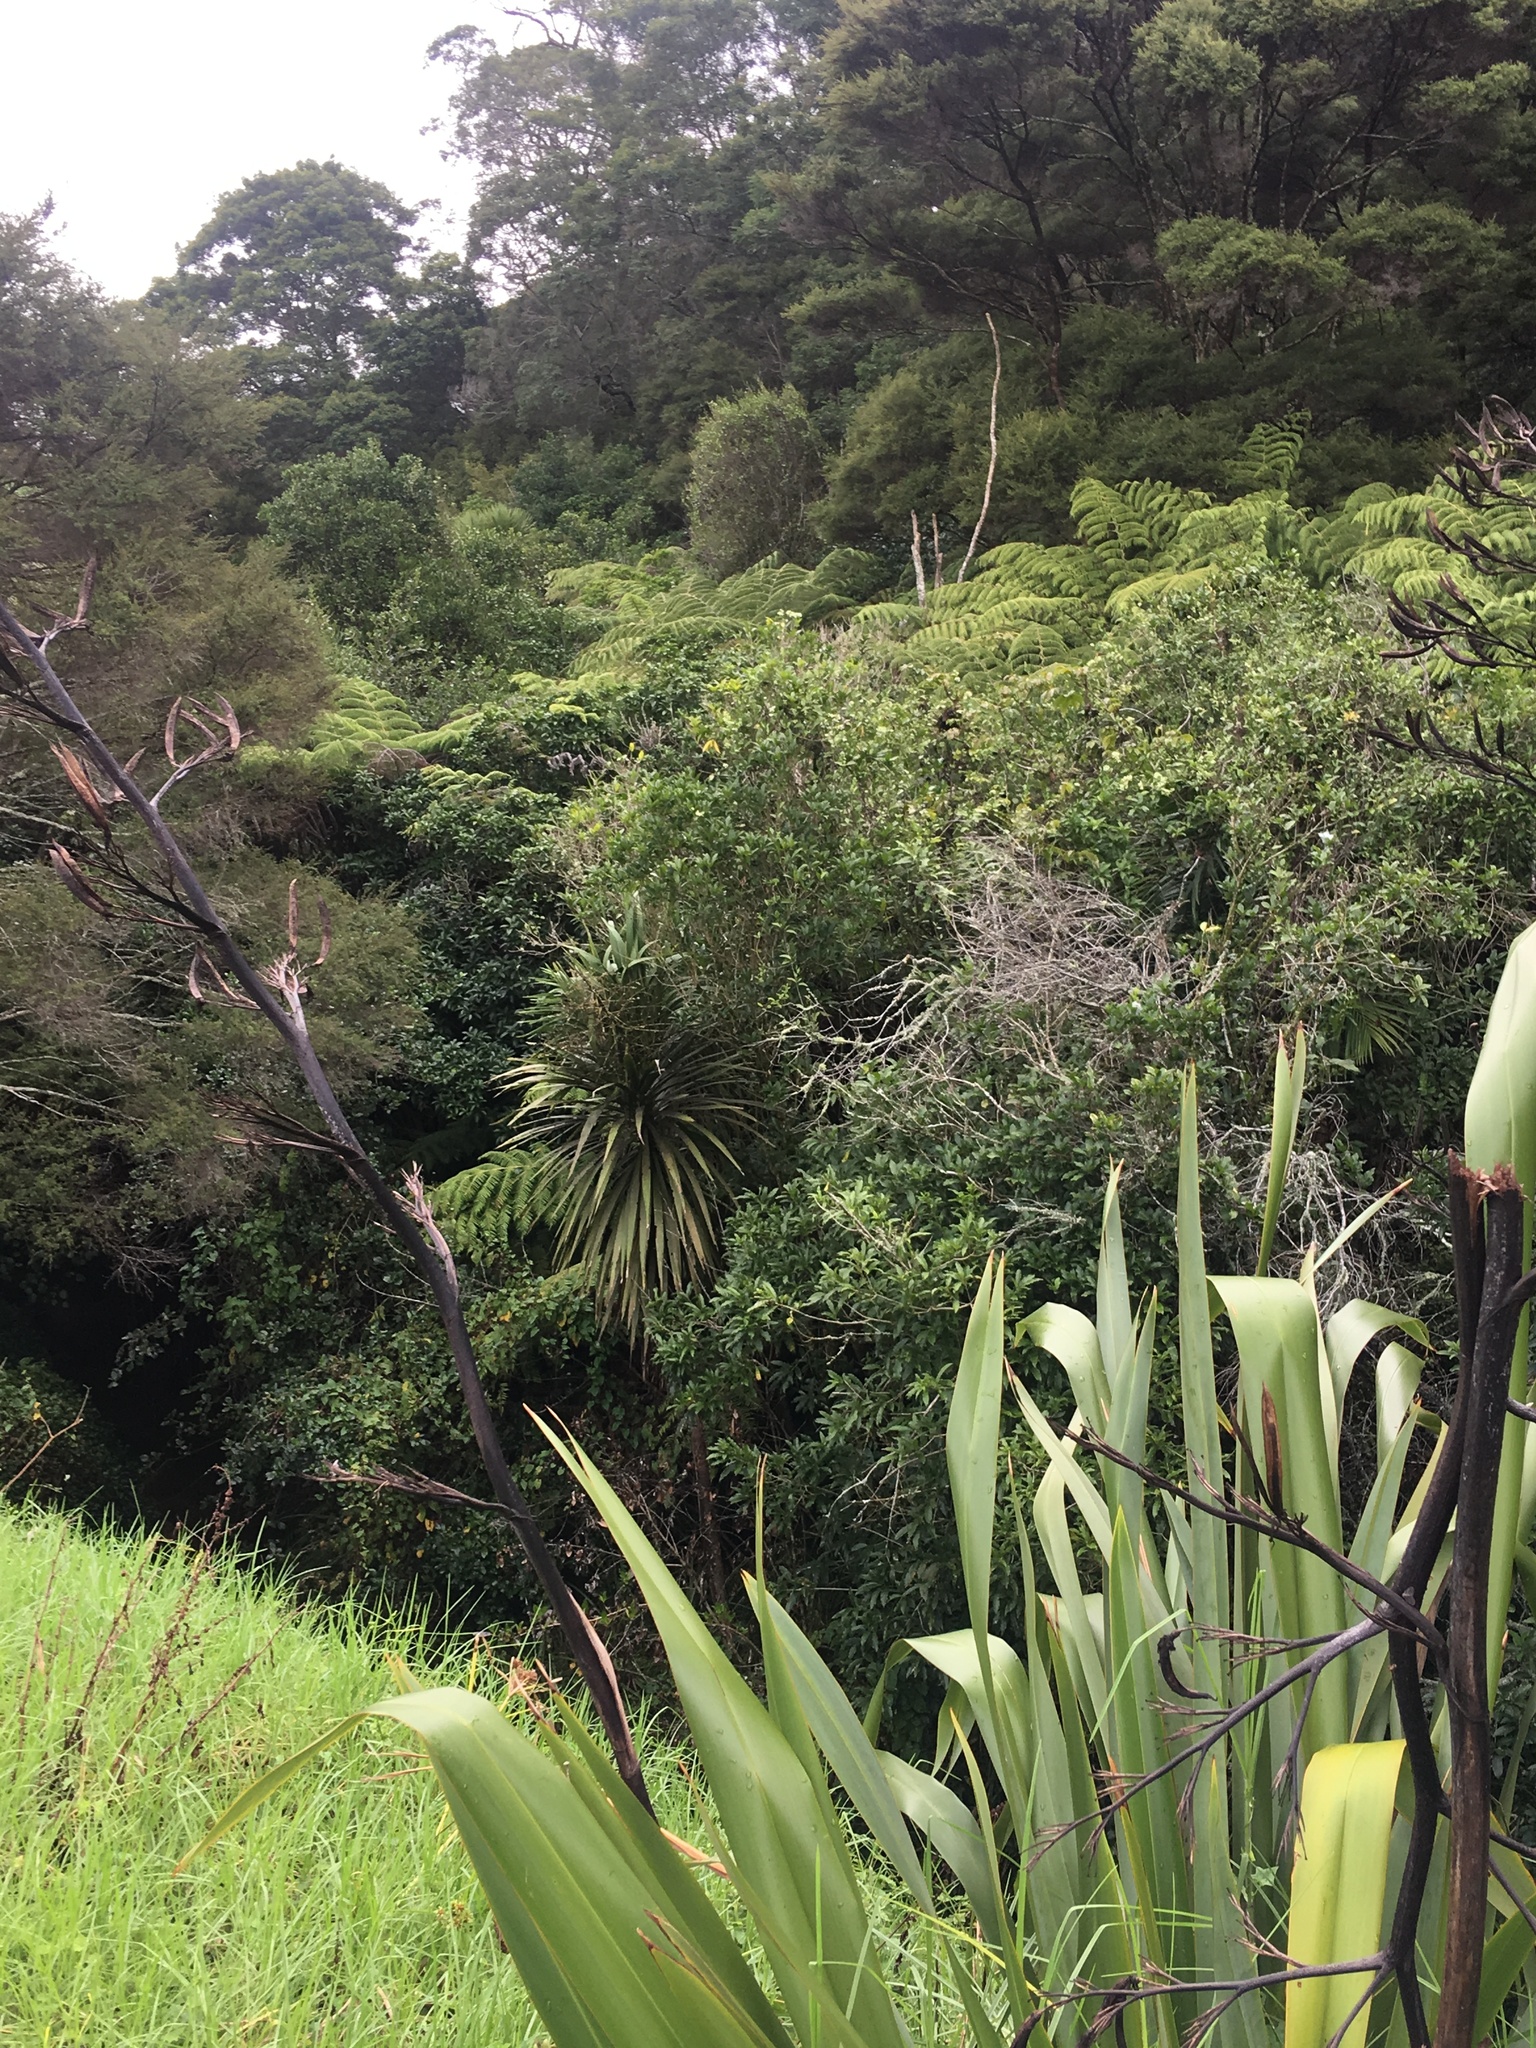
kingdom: Plantae
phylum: Tracheophyta
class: Liliopsida
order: Asparagales
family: Asphodelaceae
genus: Phormium
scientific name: Phormium tenax
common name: New zealand flax
